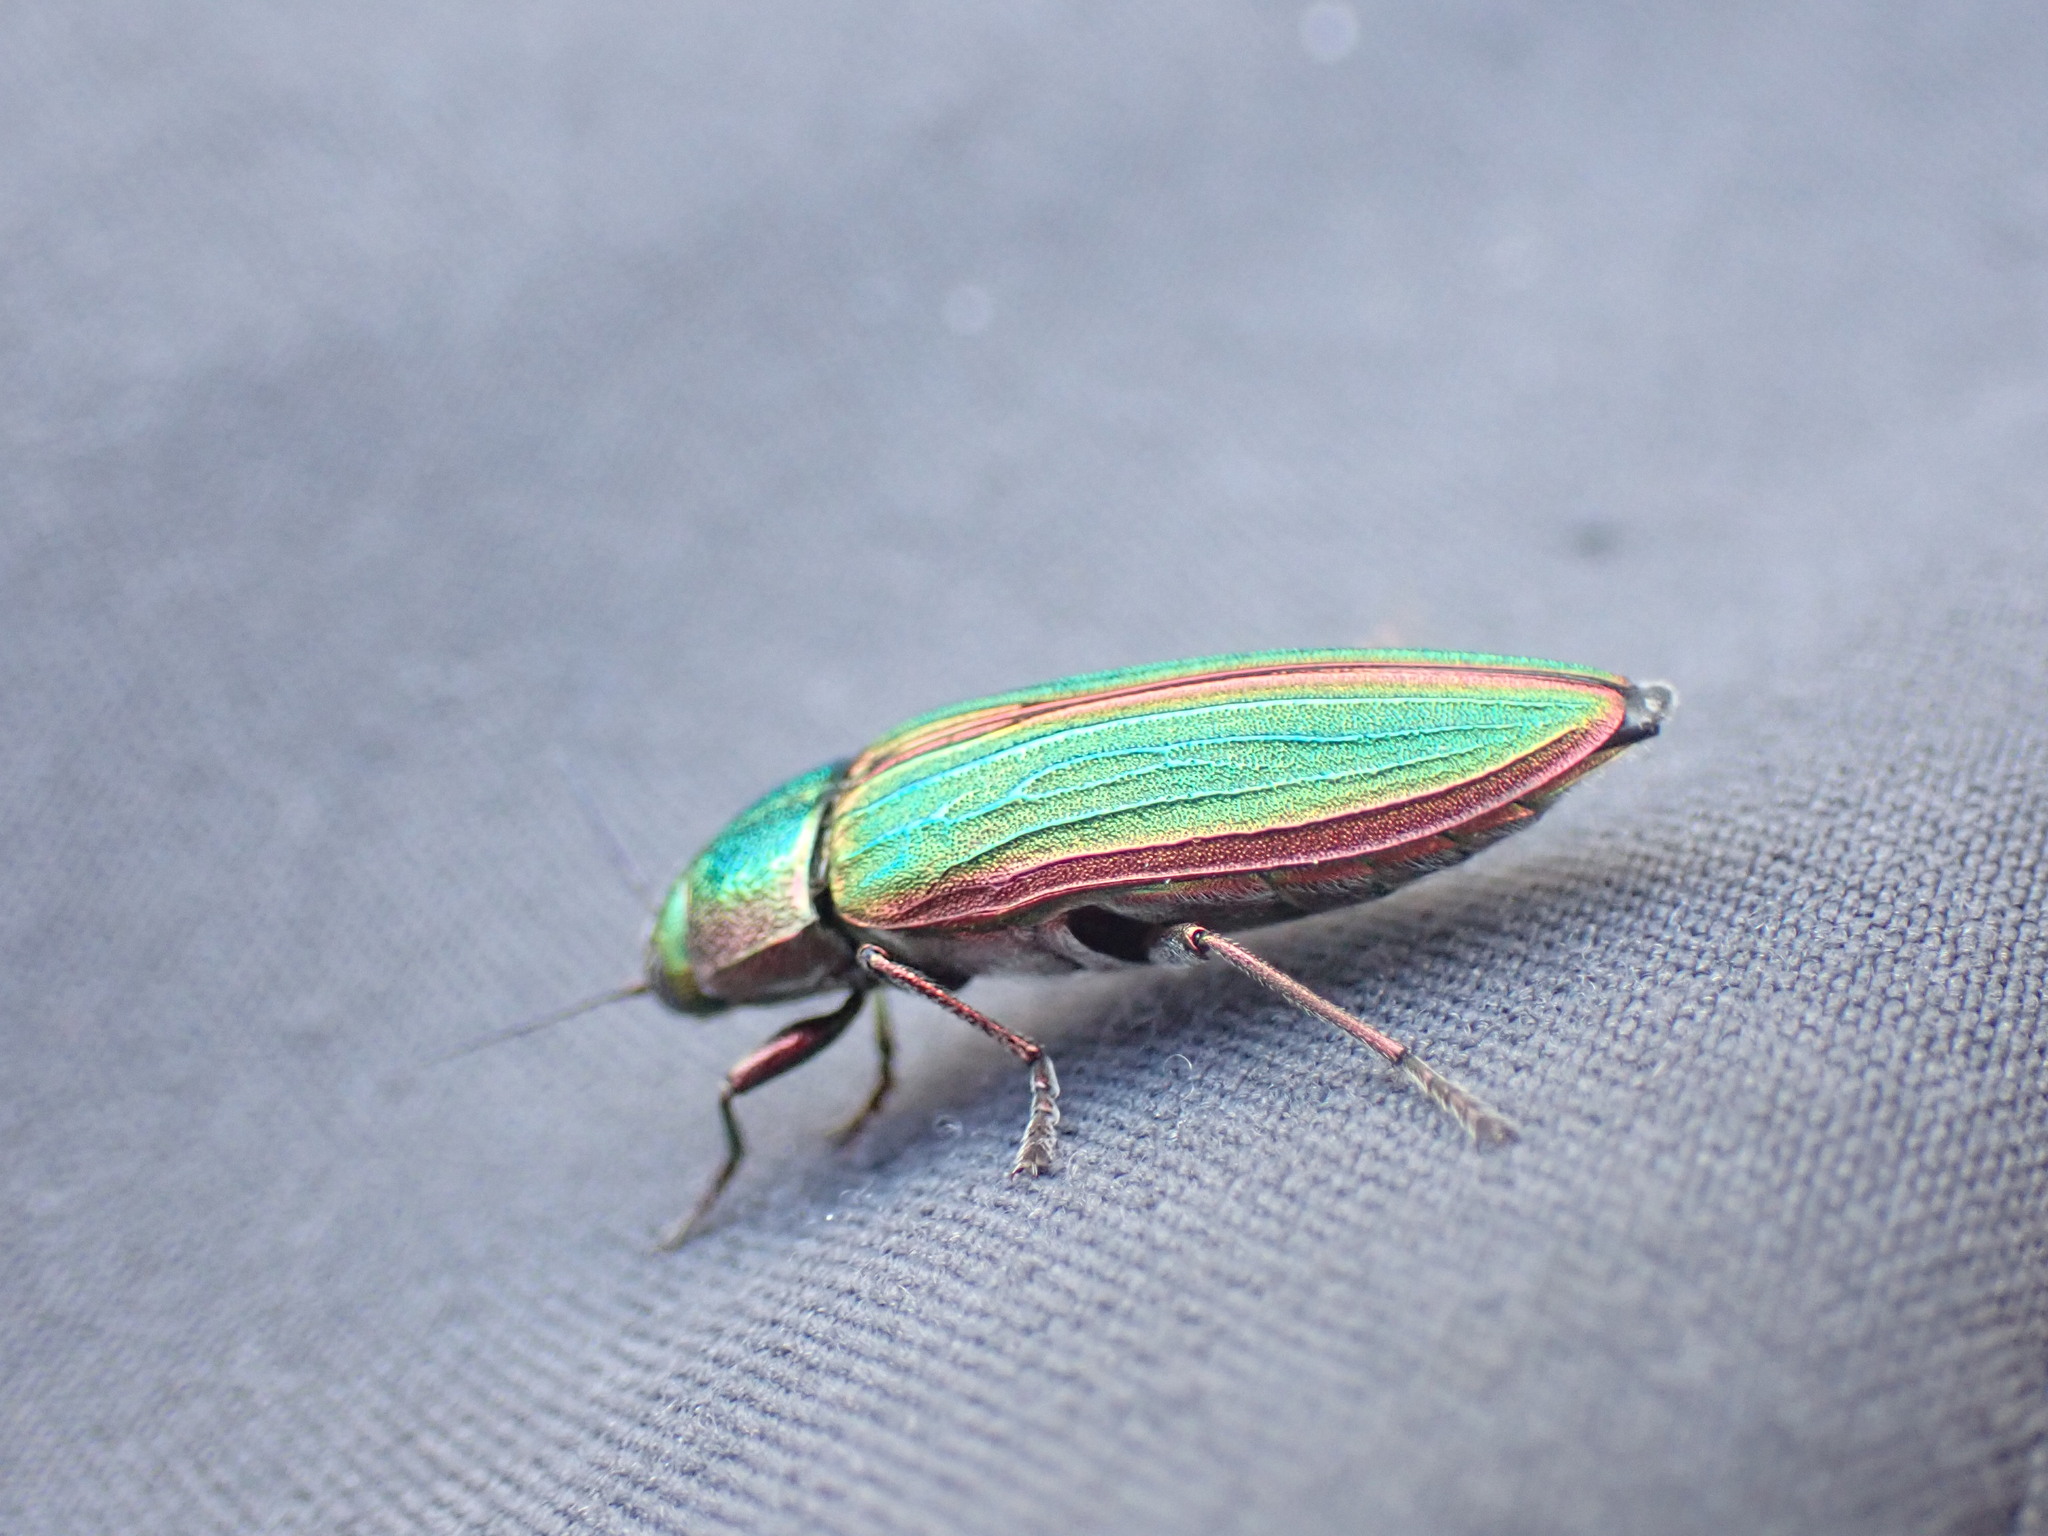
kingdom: Animalia
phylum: Arthropoda
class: Insecta
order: Coleoptera
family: Buprestidae
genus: Buprestis
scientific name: Buprestis aurulenta
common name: Golden buprestid
